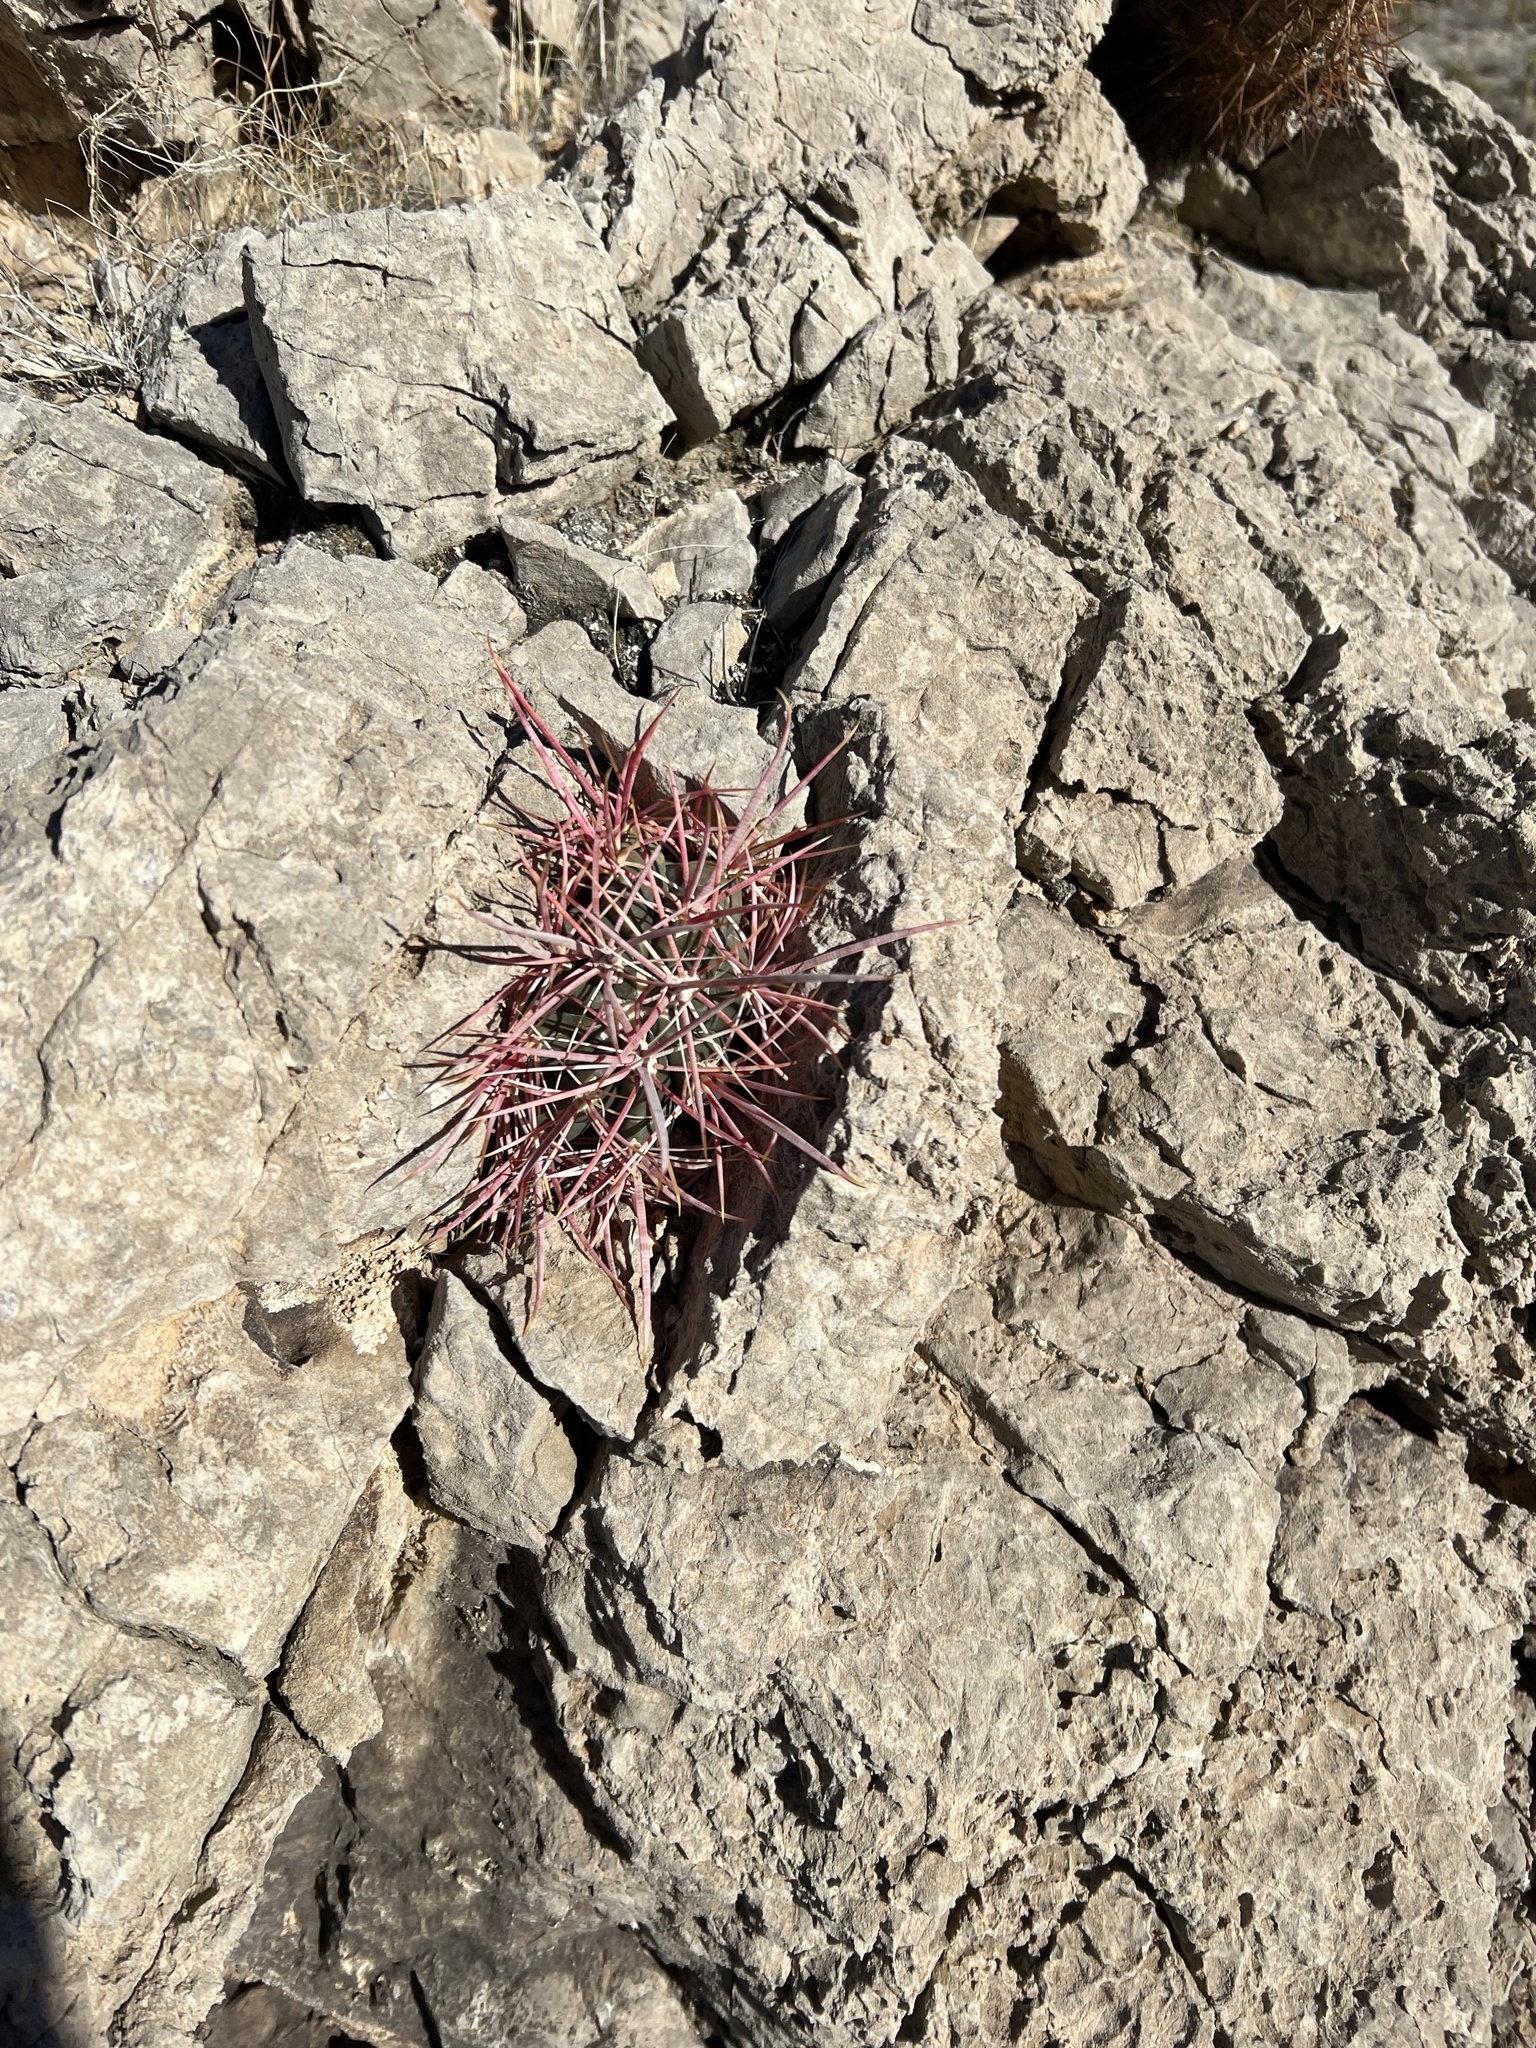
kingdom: Plantae
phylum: Tracheophyta
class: Magnoliopsida
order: Caryophyllales
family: Cactaceae
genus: Ferocactus
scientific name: Ferocactus cylindraceus
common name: California barrel cactus
